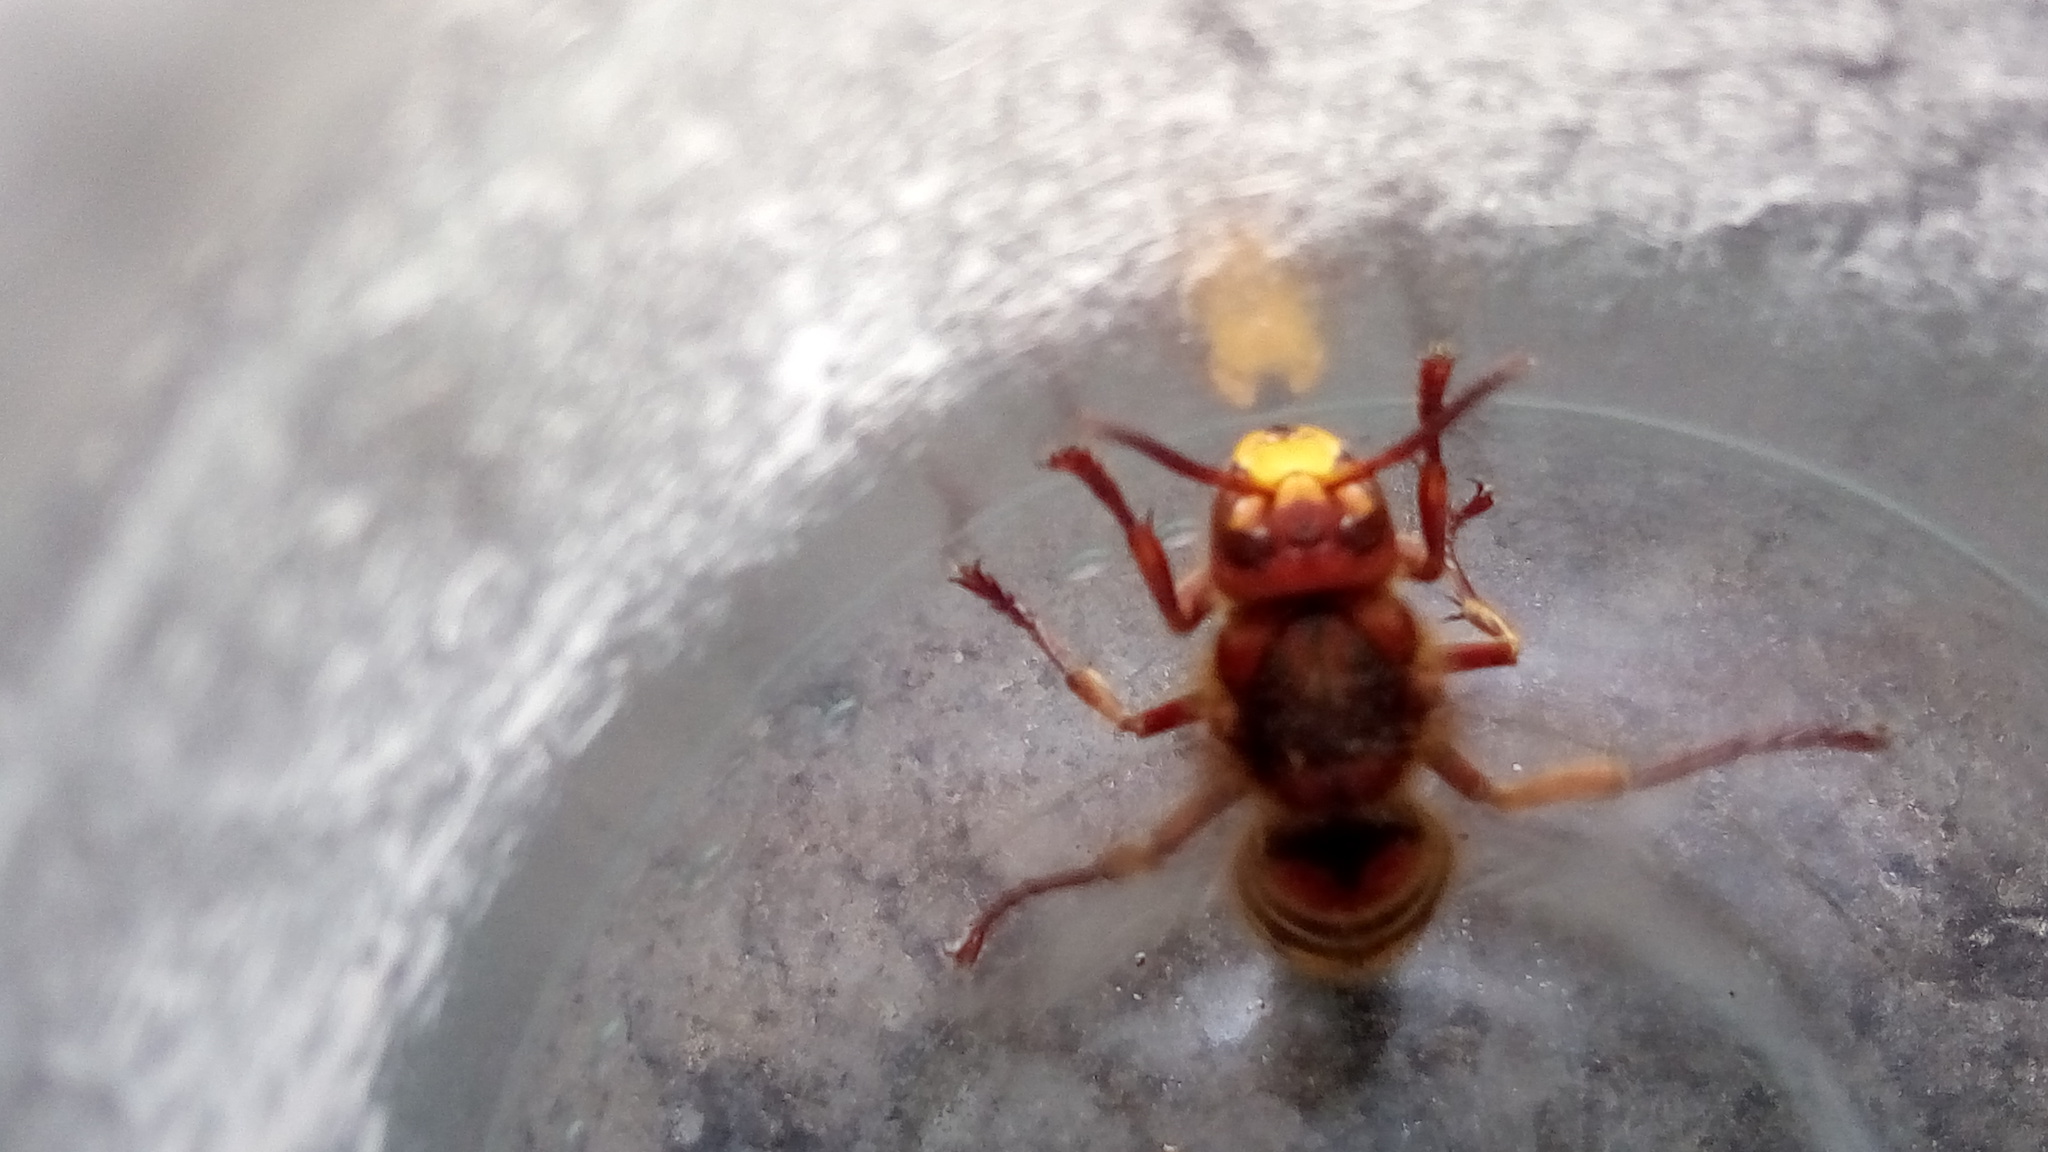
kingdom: Animalia
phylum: Arthropoda
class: Insecta
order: Hymenoptera
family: Vespidae
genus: Vespa
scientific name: Vespa crabro
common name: Hornet
